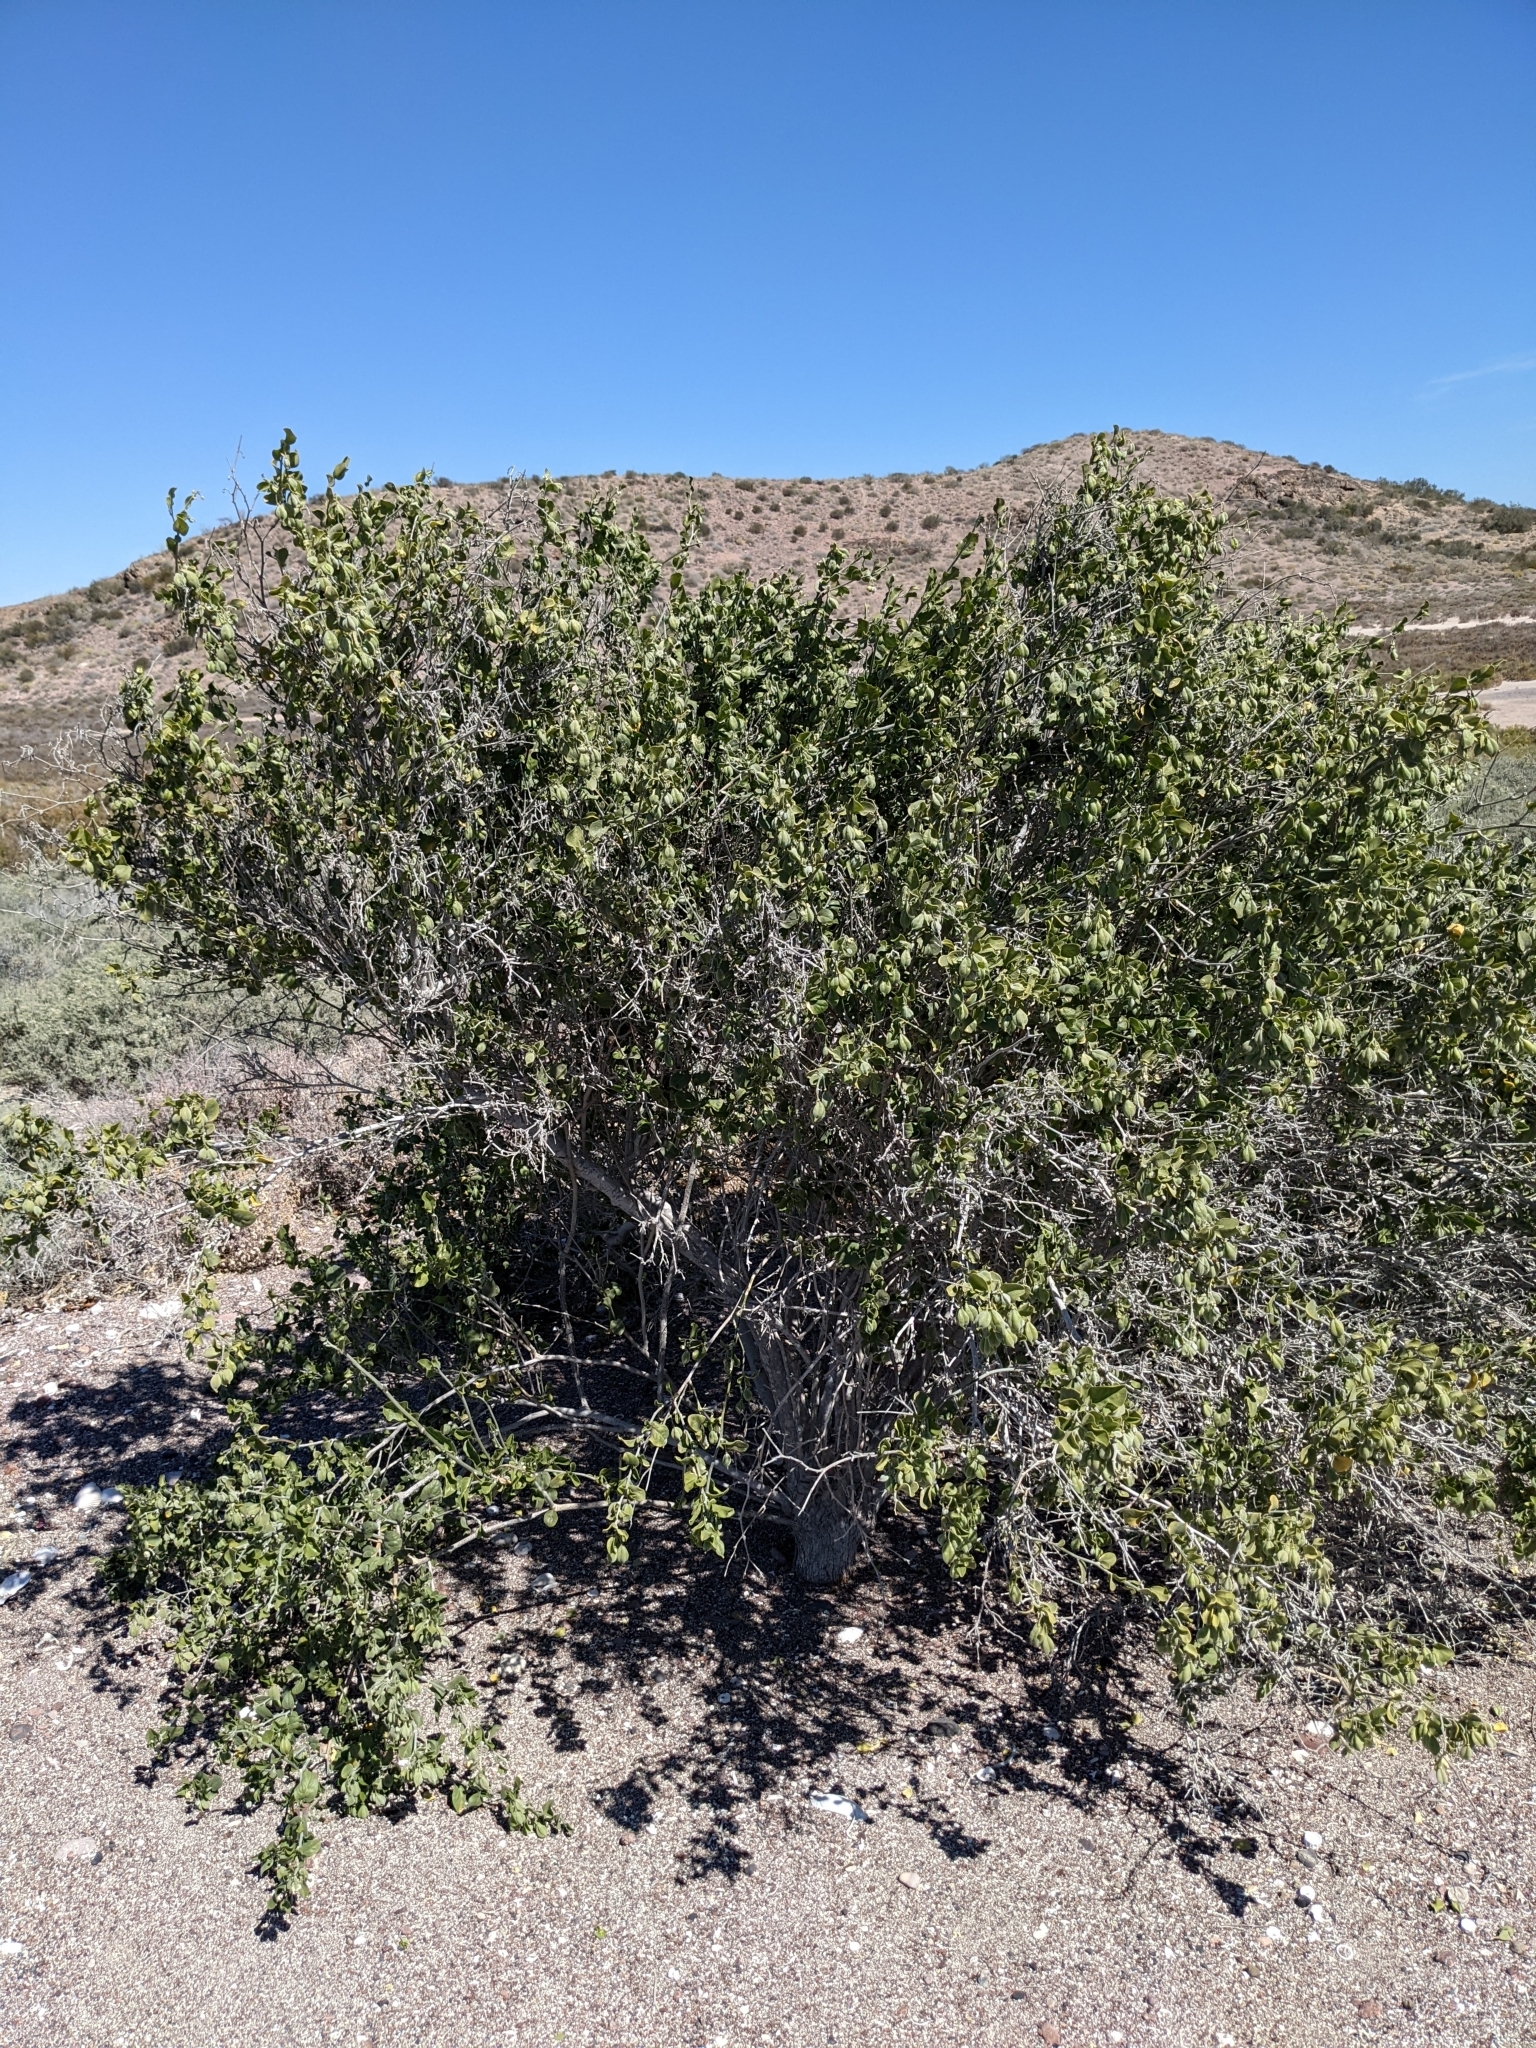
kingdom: Plantae
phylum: Tracheophyta
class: Magnoliopsida
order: Zygophyllales
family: Zygophyllaceae
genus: Viscainoa
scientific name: Viscainoa geniculata
